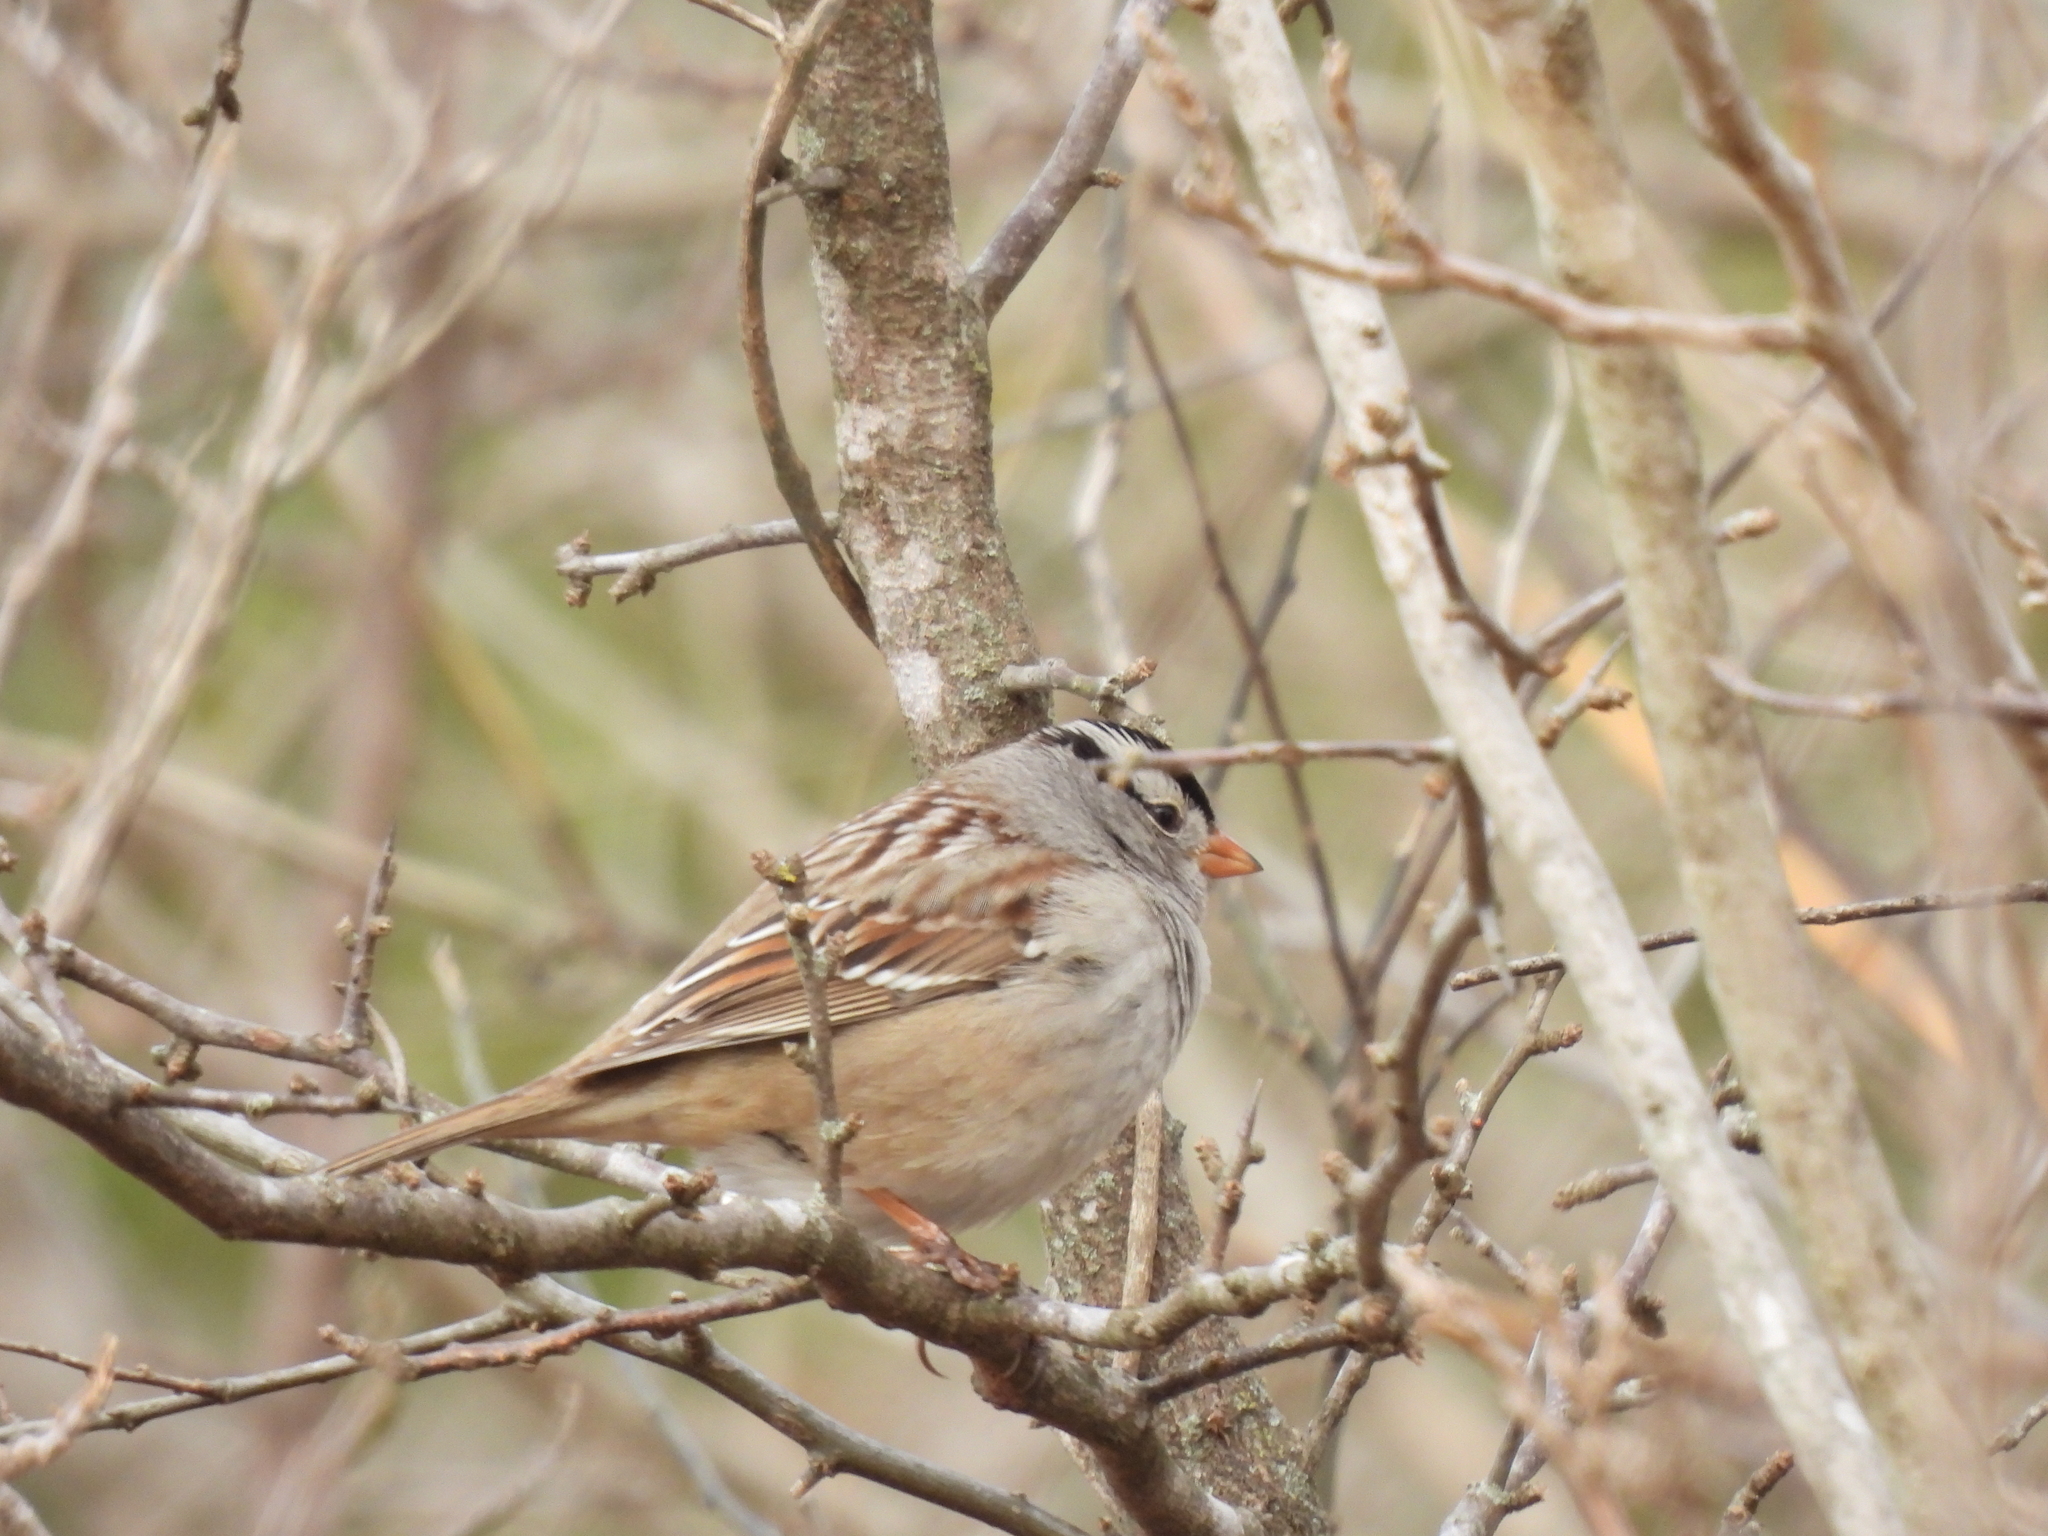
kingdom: Animalia
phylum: Chordata
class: Aves
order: Passeriformes
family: Passerellidae
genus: Zonotrichia
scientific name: Zonotrichia leucophrys
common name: White-crowned sparrow
